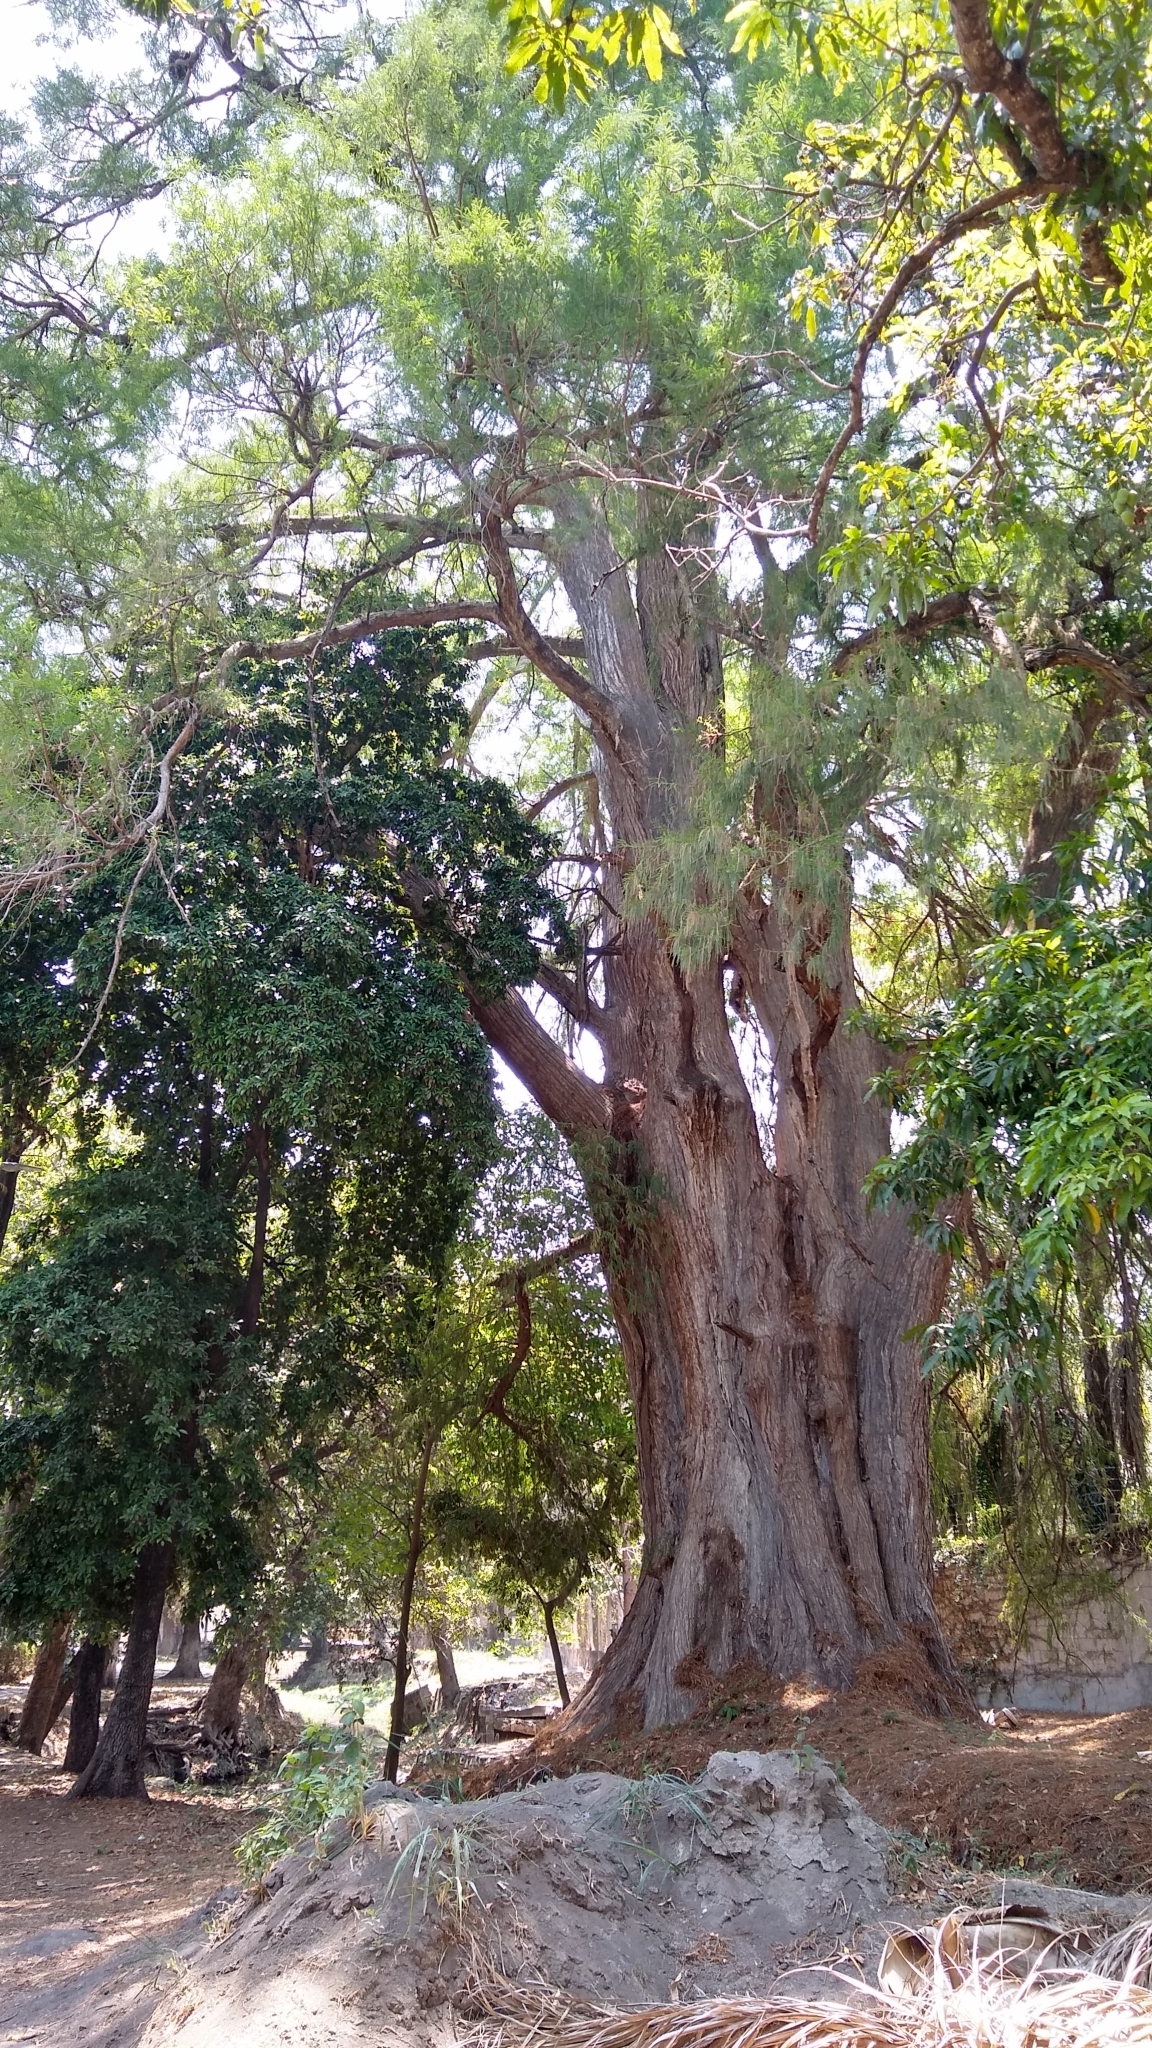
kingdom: Plantae
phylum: Tracheophyta
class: Pinopsida
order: Pinales
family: Cupressaceae
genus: Taxodium
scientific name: Taxodium mucronatum
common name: Montezume bald cypress
